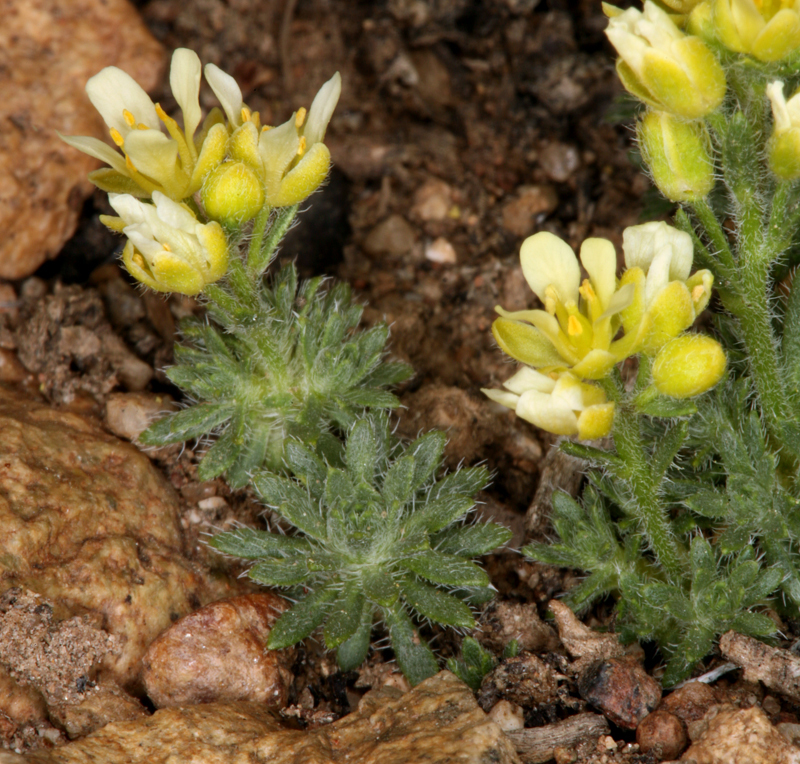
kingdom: Plantae
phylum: Tracheophyta
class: Magnoliopsida
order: Brassicales
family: Brassicaceae
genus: Cusickiella
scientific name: Cusickiella quadricostata
